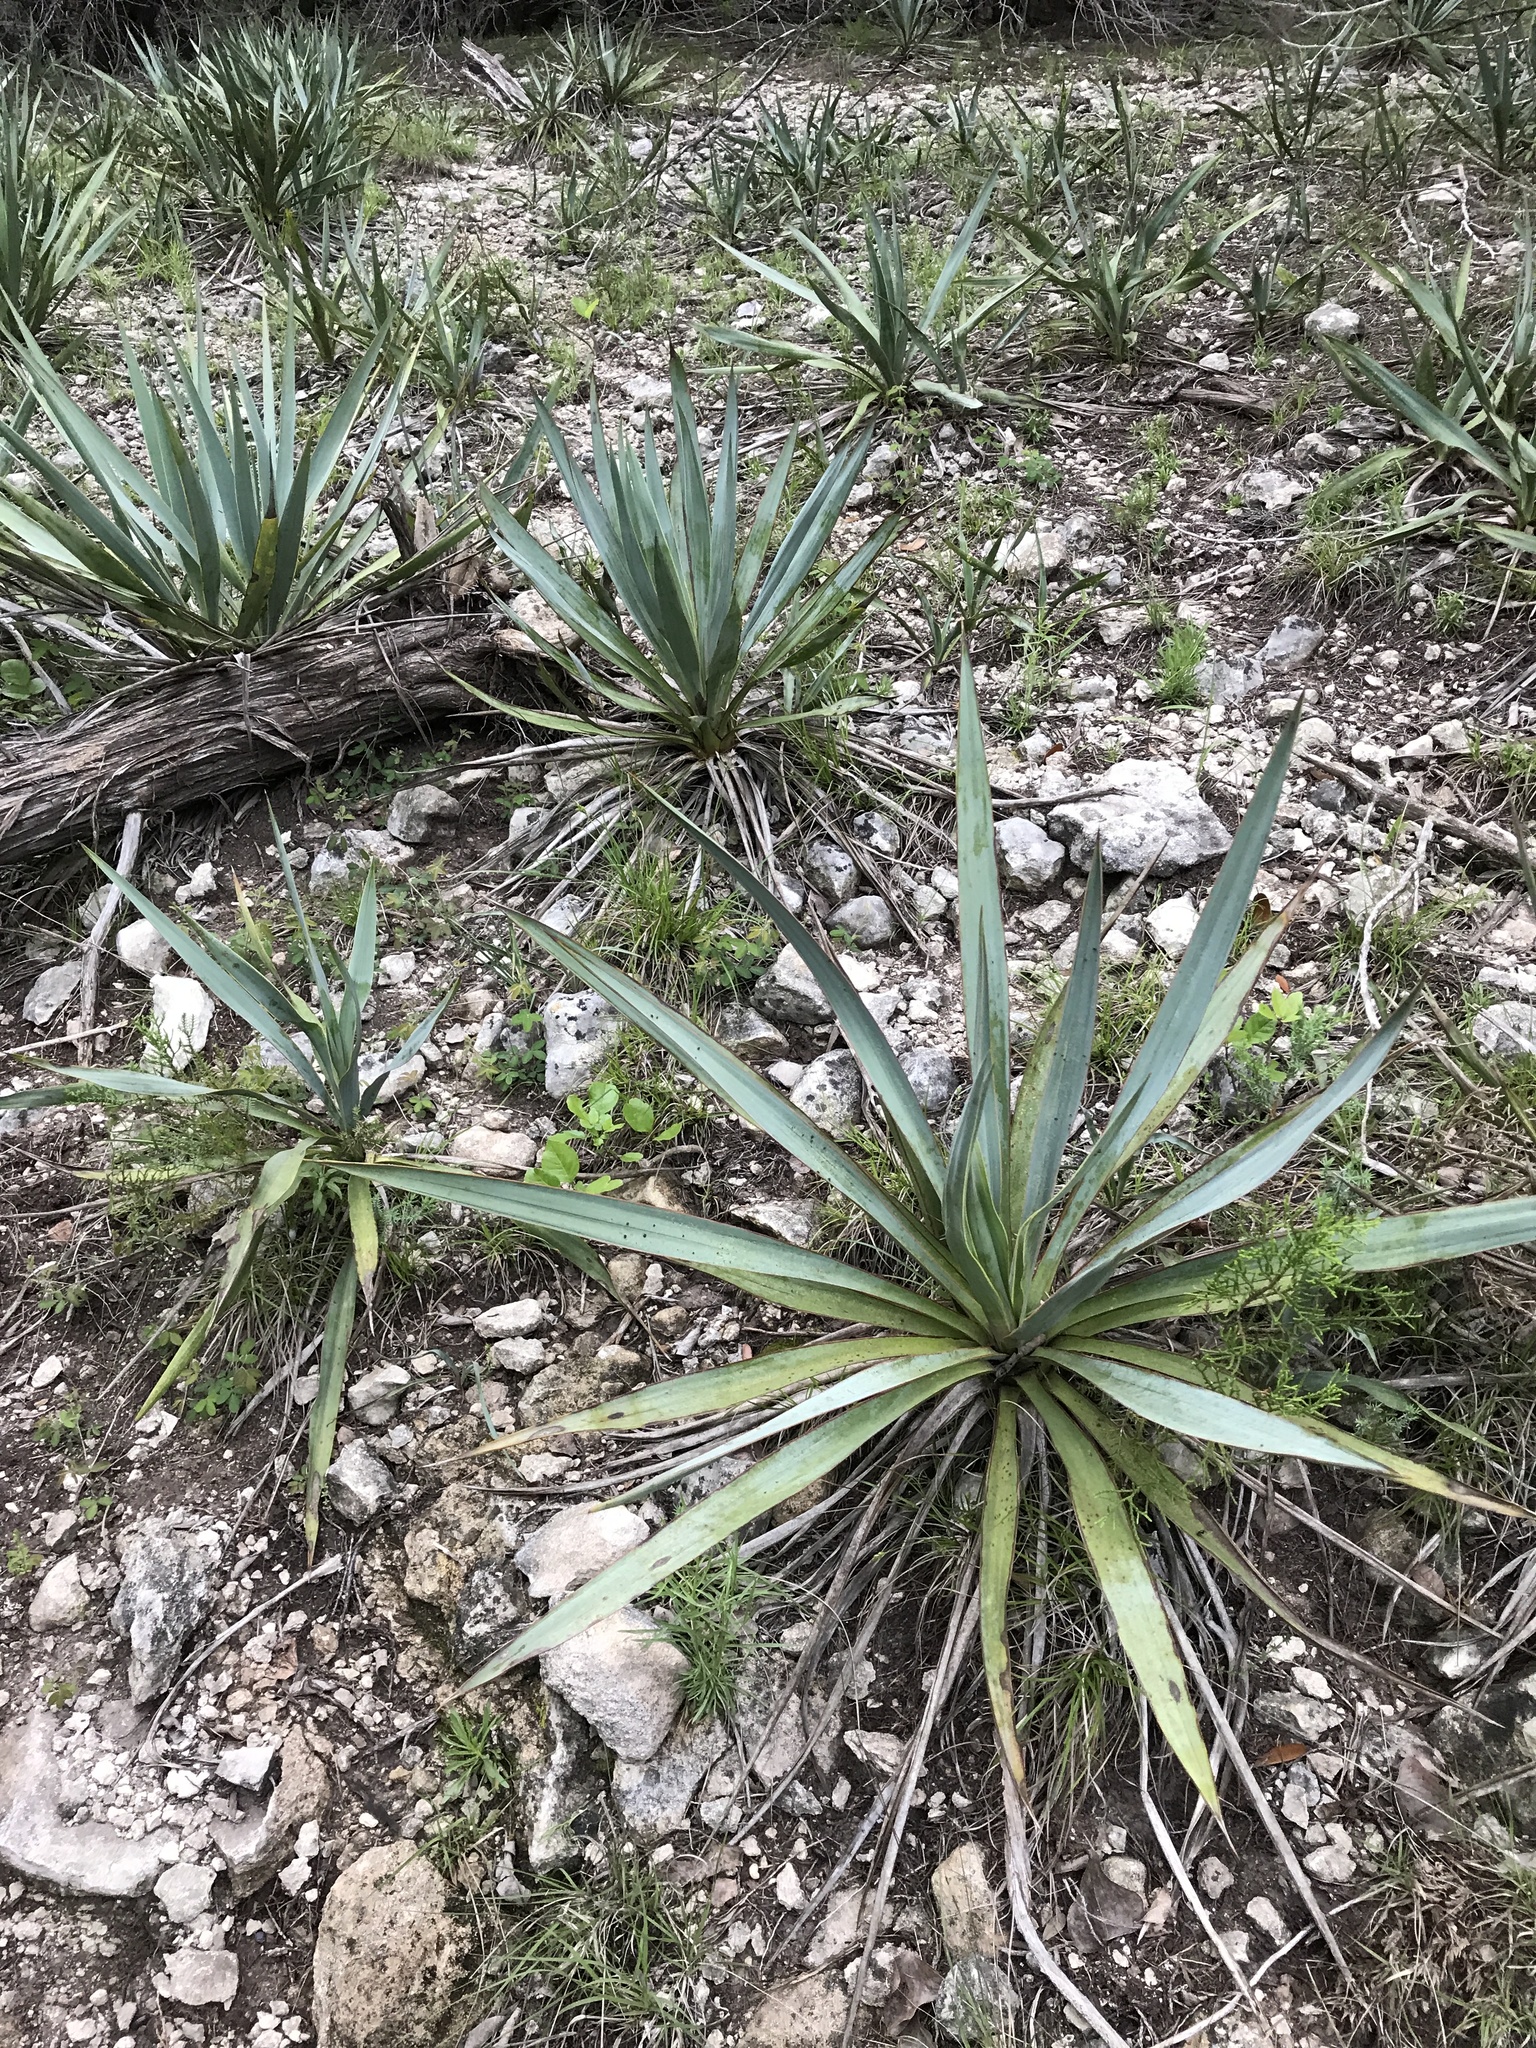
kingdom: Plantae
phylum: Tracheophyta
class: Liliopsida
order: Asparagales
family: Asparagaceae
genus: Yucca
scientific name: Yucca pallida
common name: Pale leaf yucca
